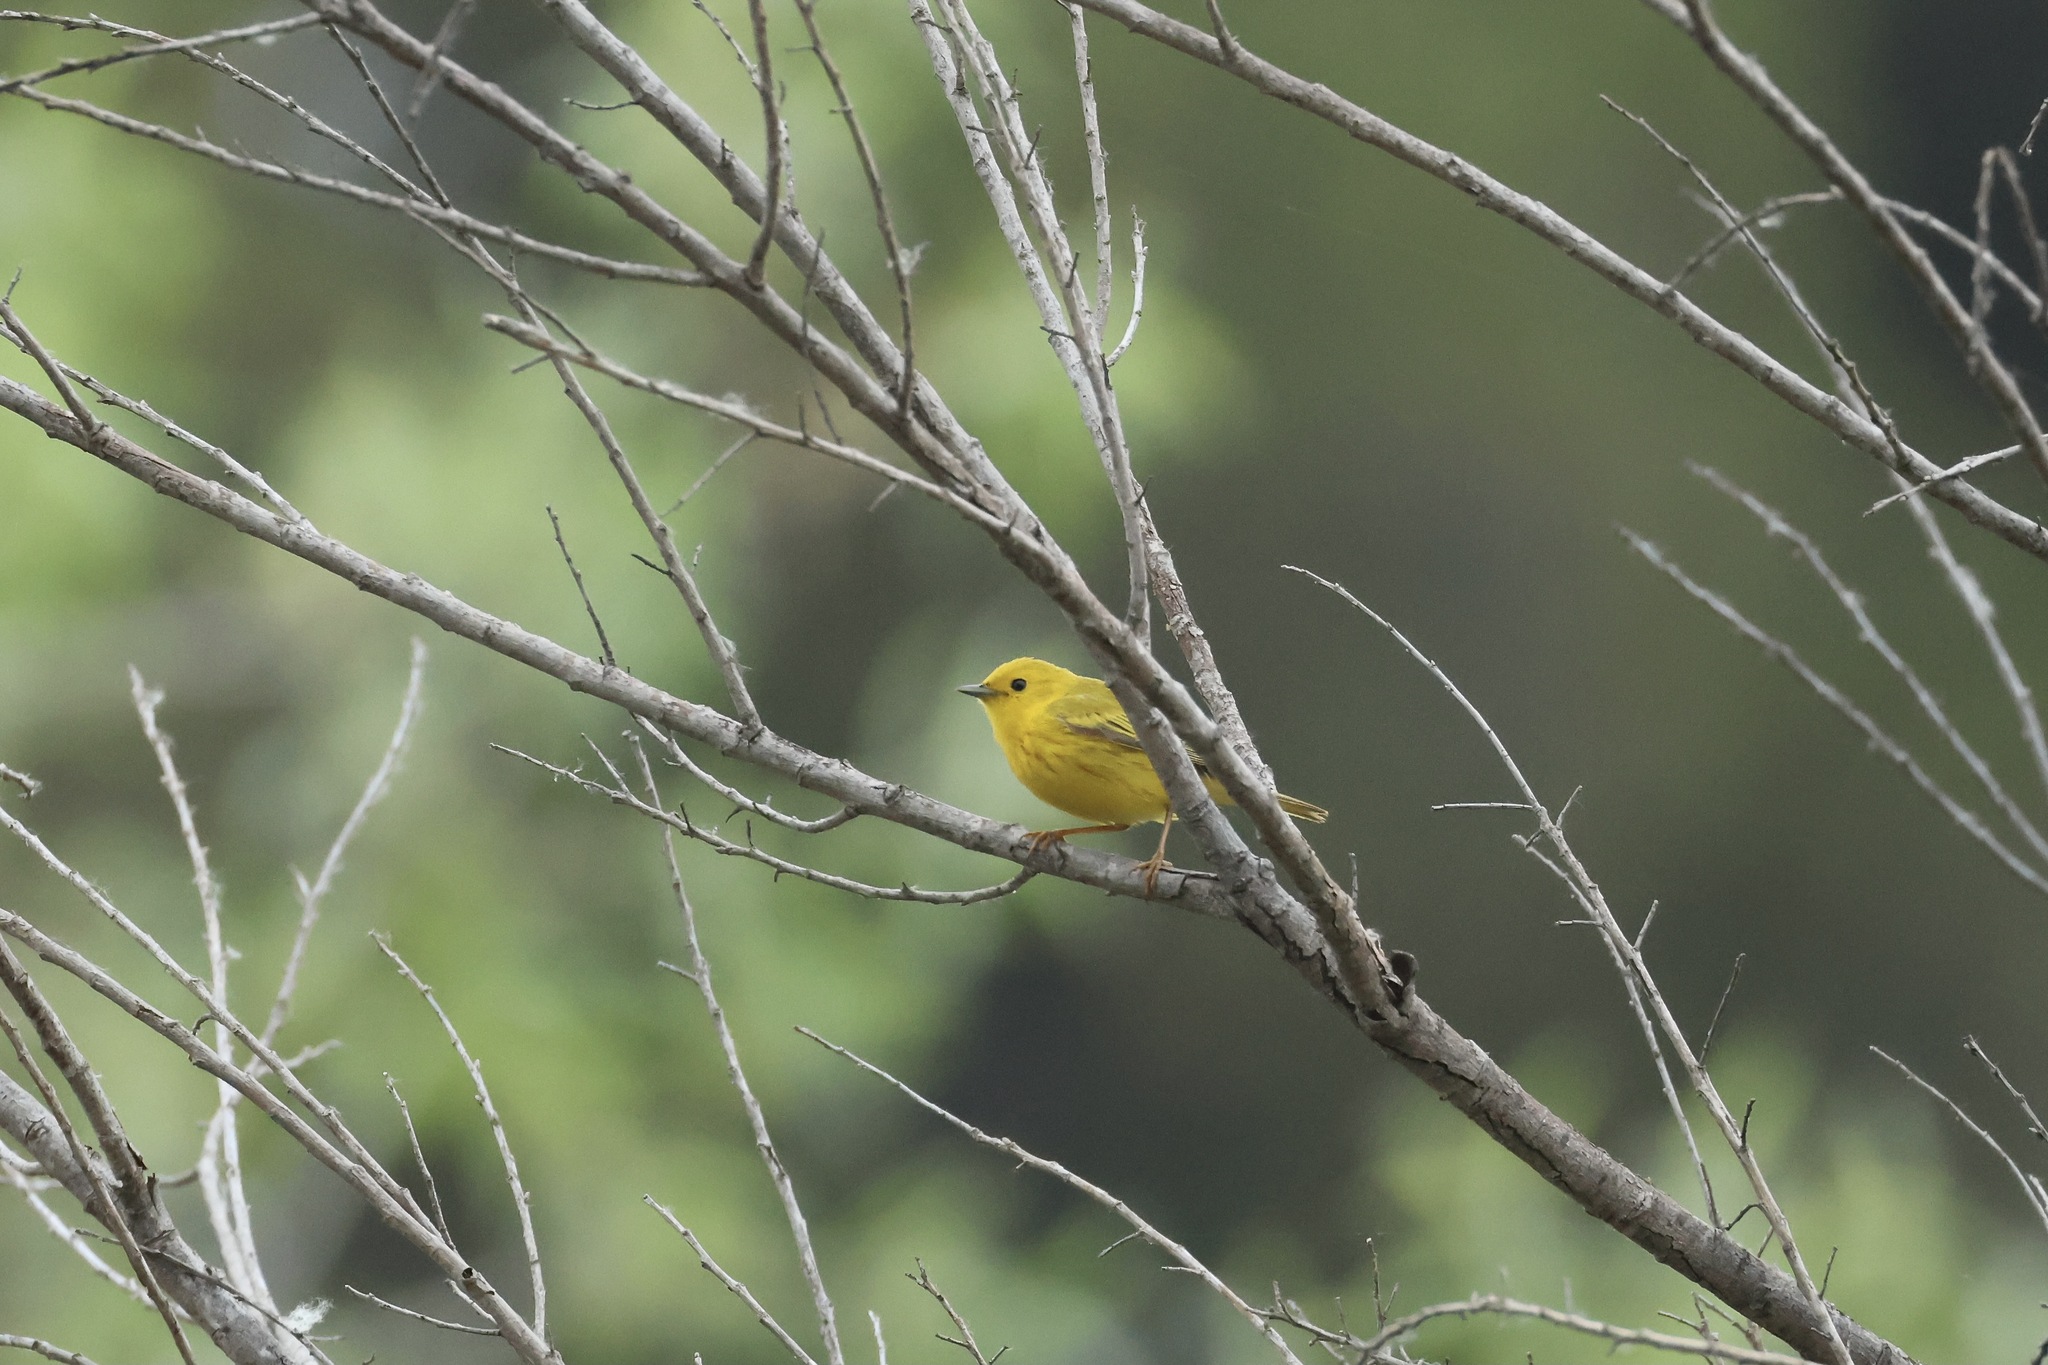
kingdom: Animalia
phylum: Chordata
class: Aves
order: Passeriformes
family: Parulidae
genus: Setophaga
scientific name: Setophaga petechia
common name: Yellow warbler
